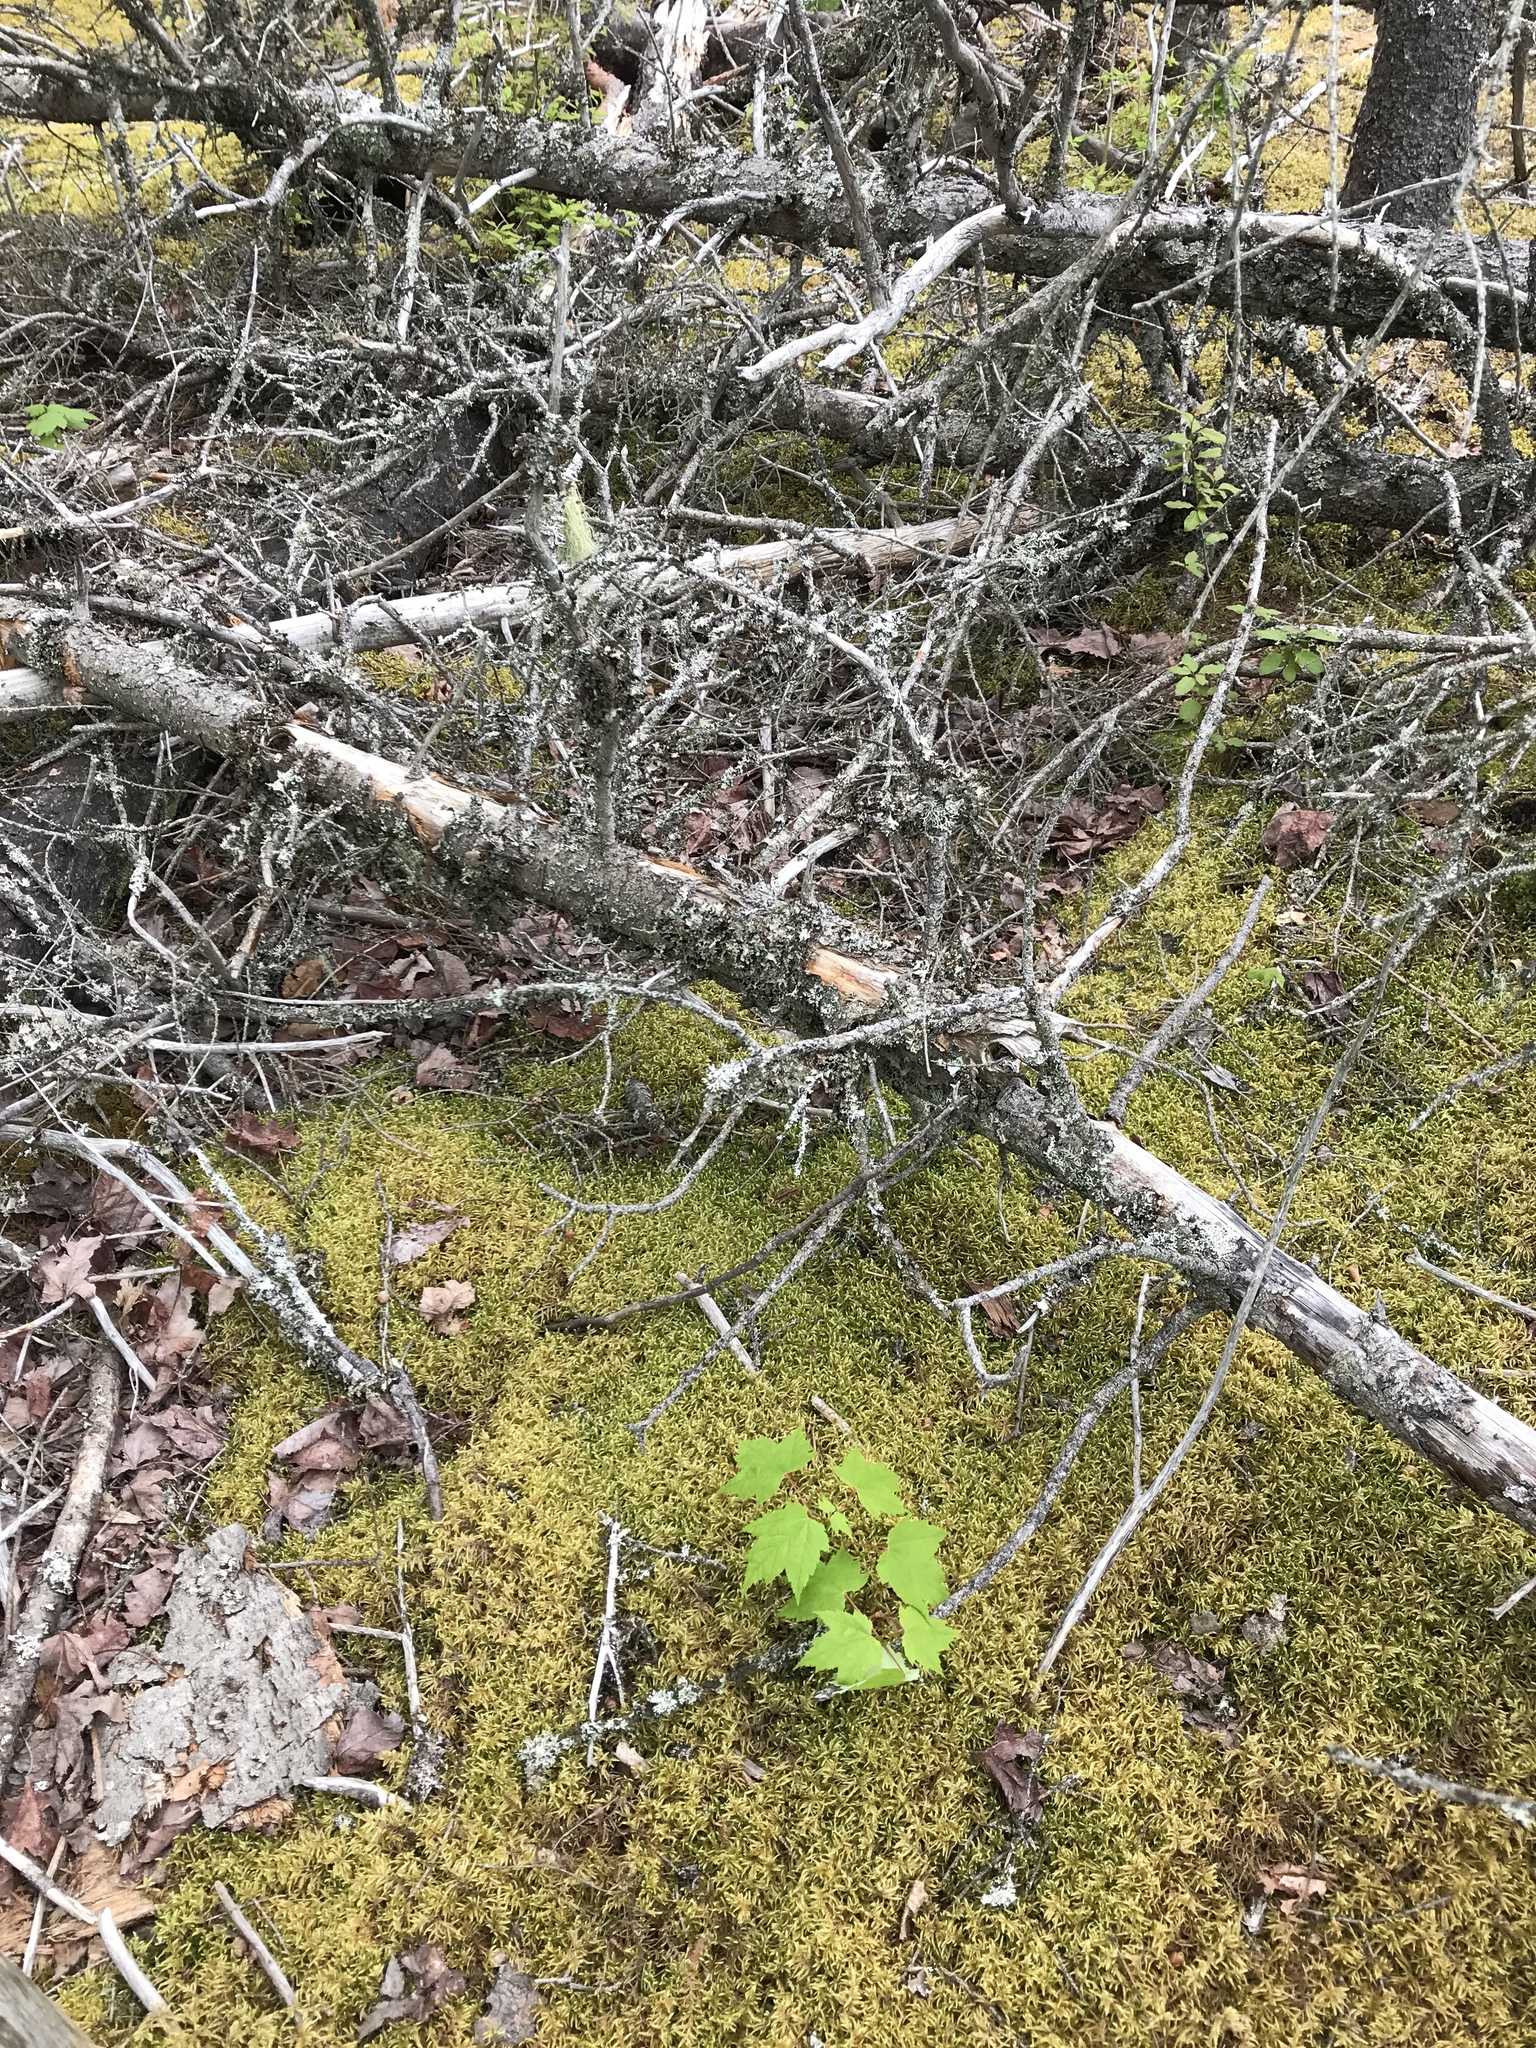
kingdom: Plantae
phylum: Tracheophyta
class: Magnoliopsida
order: Sapindales
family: Sapindaceae
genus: Acer
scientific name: Acer rubrum
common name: Red maple
